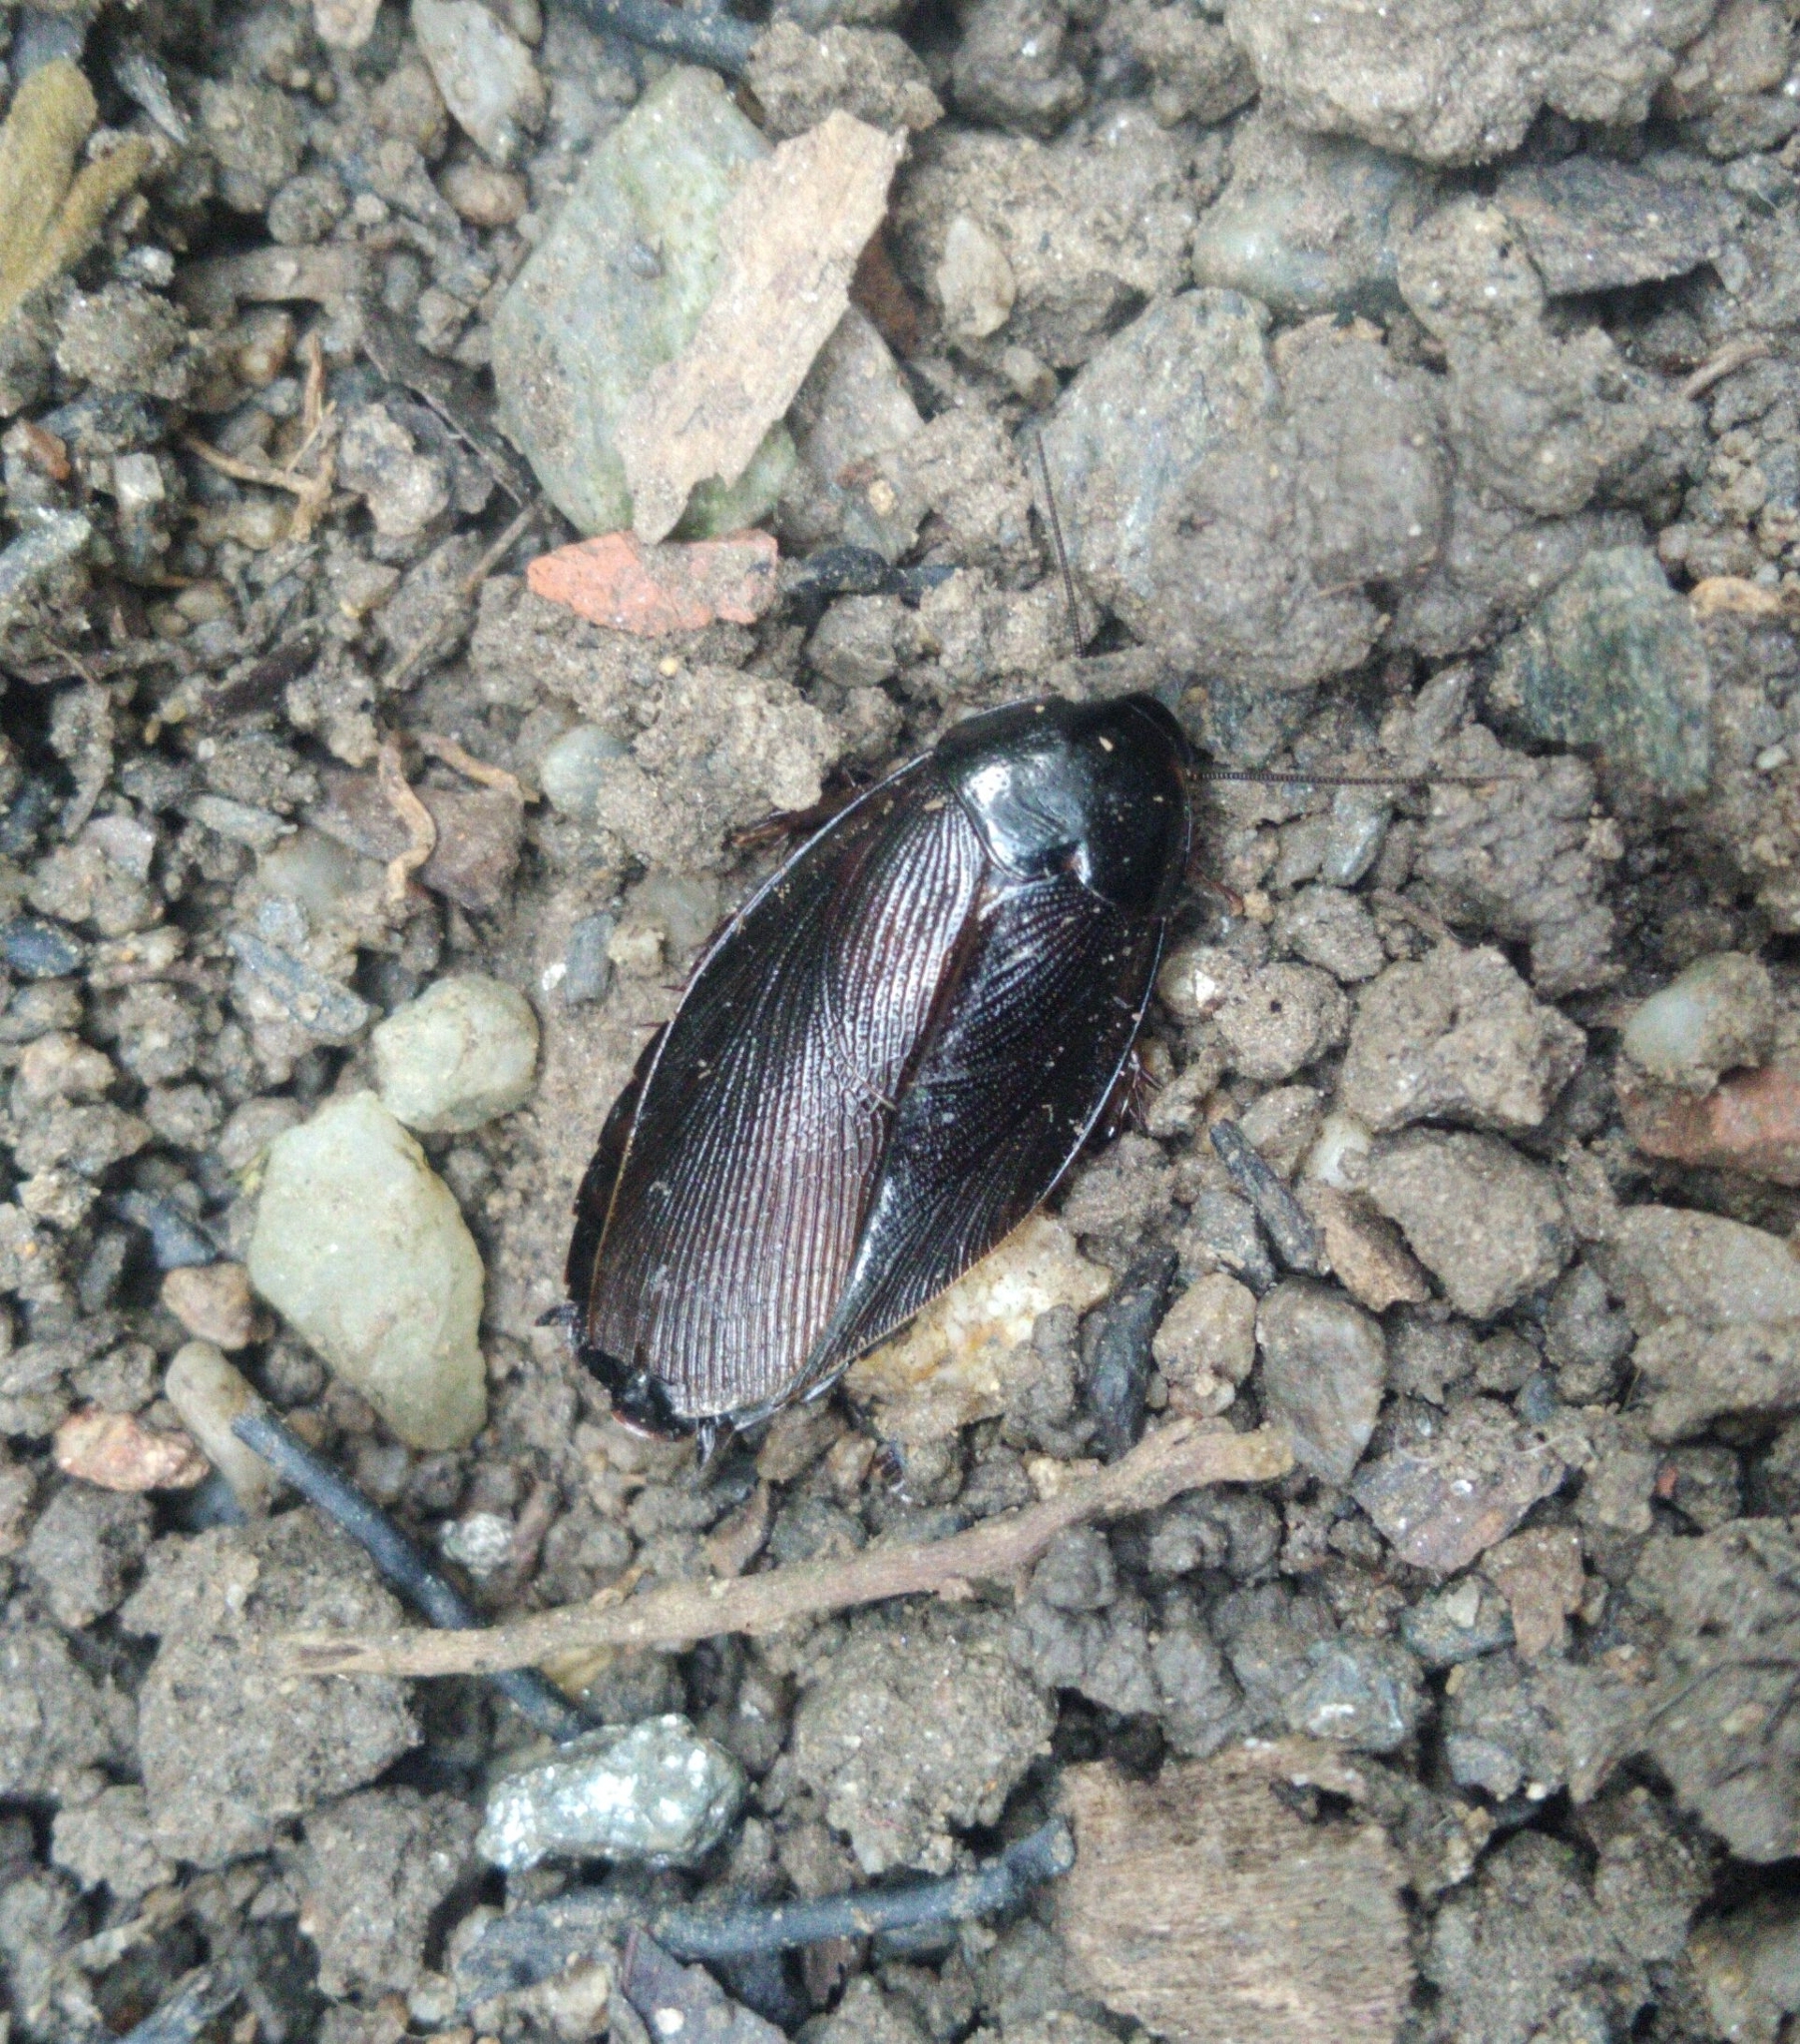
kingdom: Animalia
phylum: Arthropoda
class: Insecta
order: Blattodea
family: Blaberidae
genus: Pycnoscelus
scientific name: Pycnoscelus surinamensis
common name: Surinam cockroach
